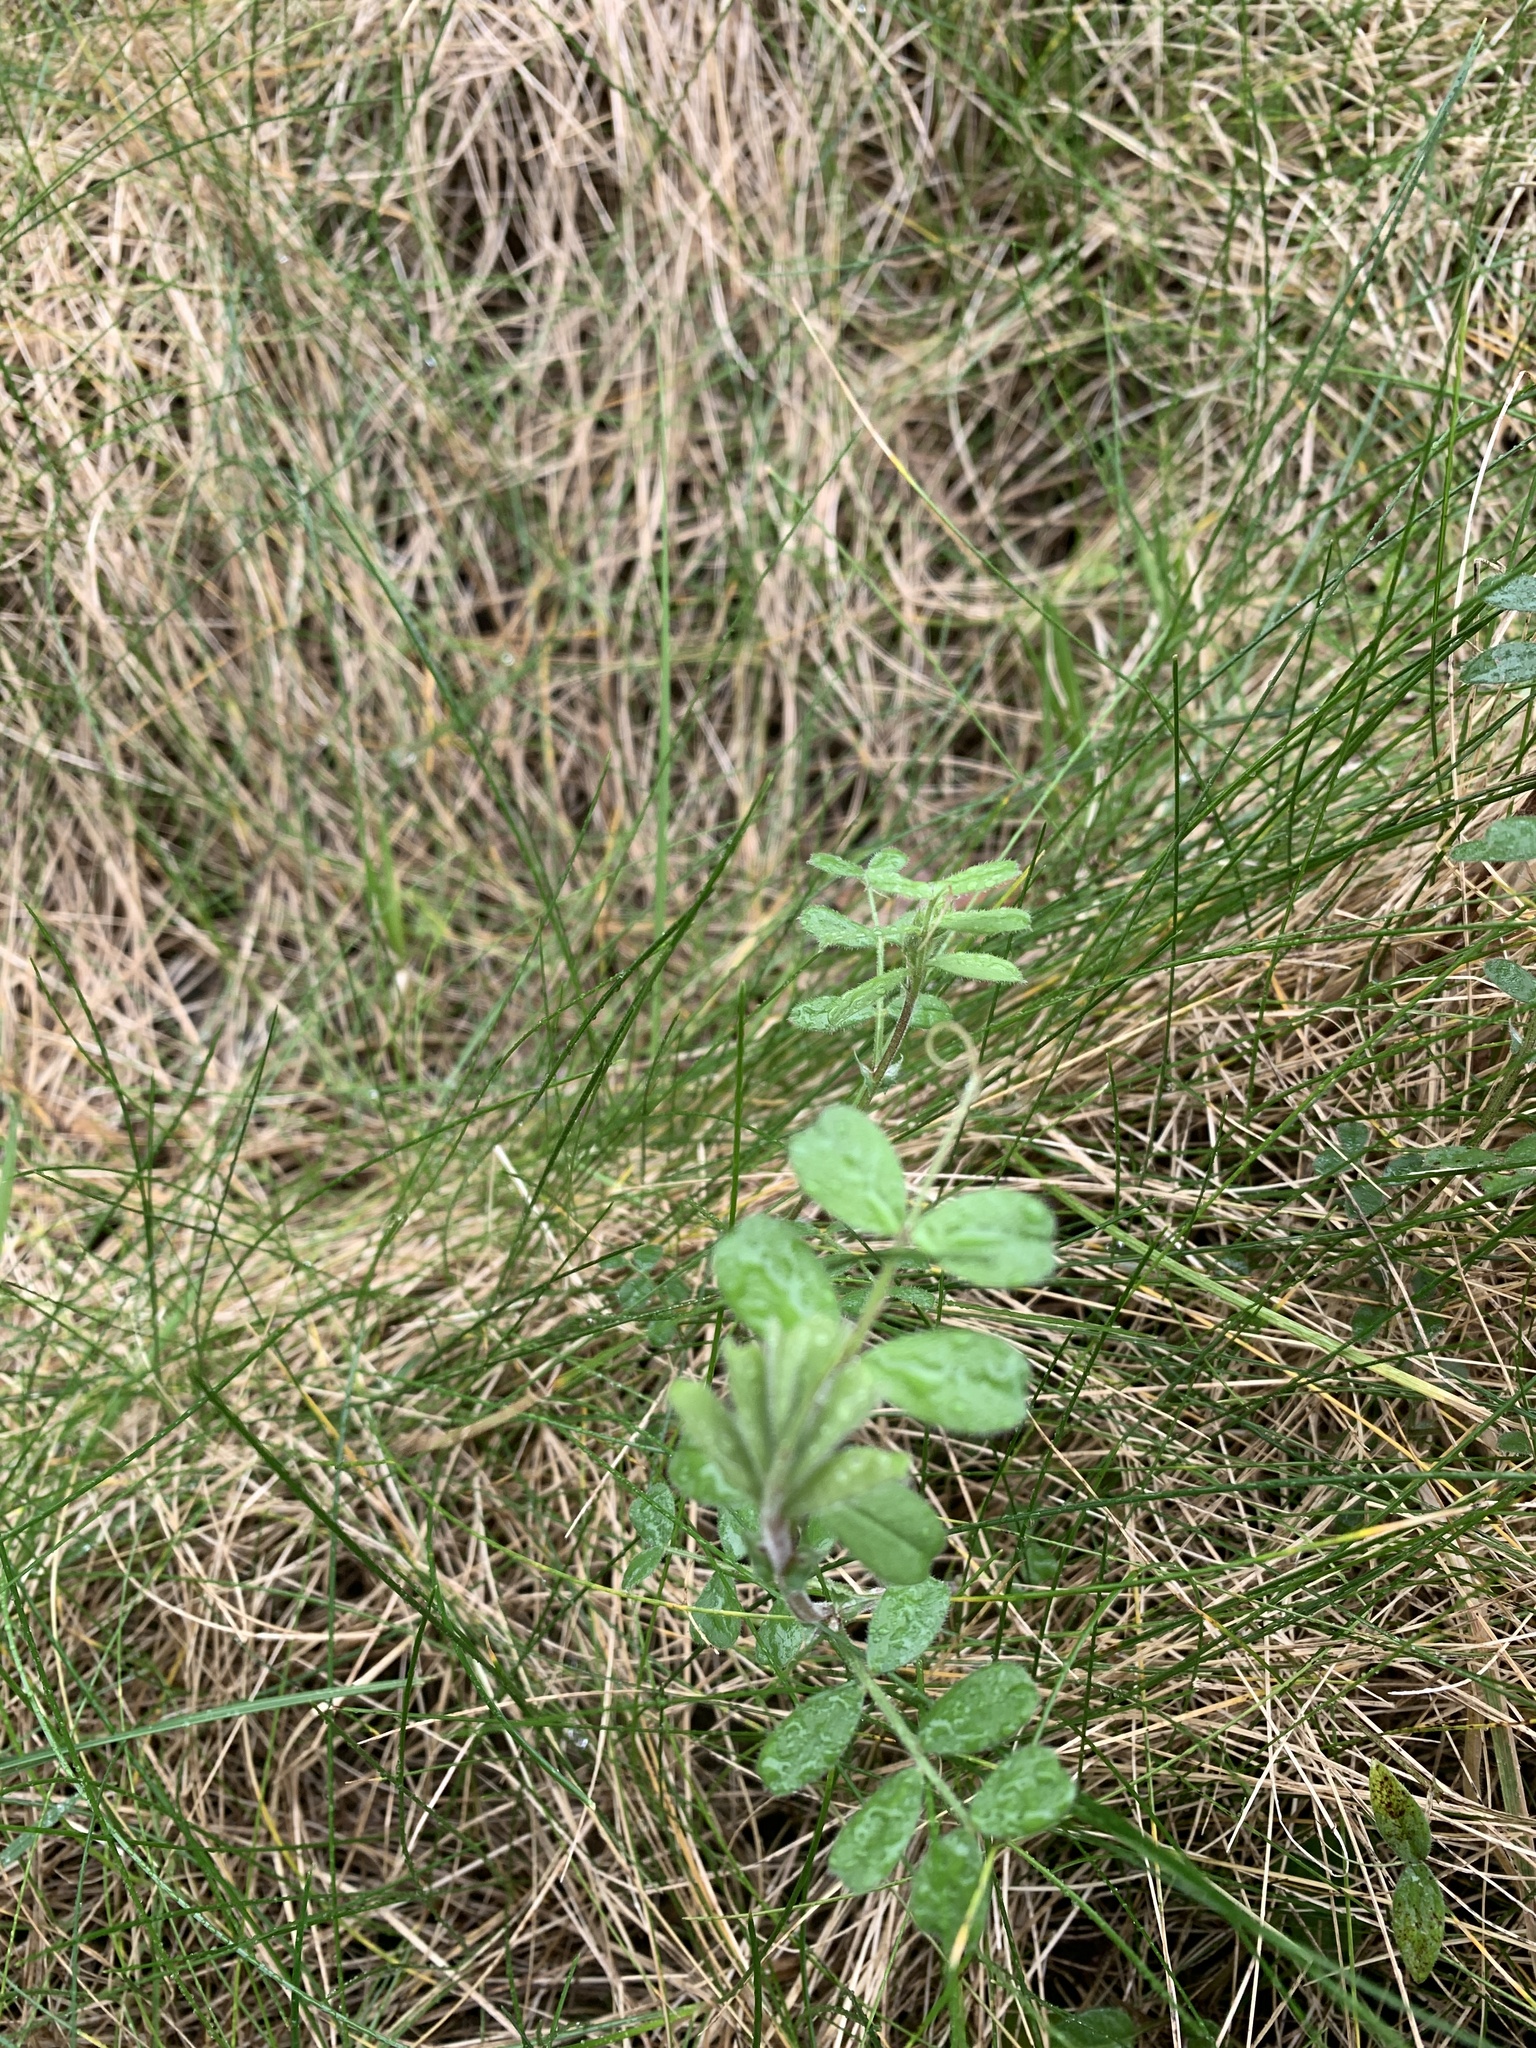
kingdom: Plantae
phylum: Tracheophyta
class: Magnoliopsida
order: Fabales
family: Fabaceae
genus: Vicia
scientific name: Vicia sepium
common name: Bush vetch
